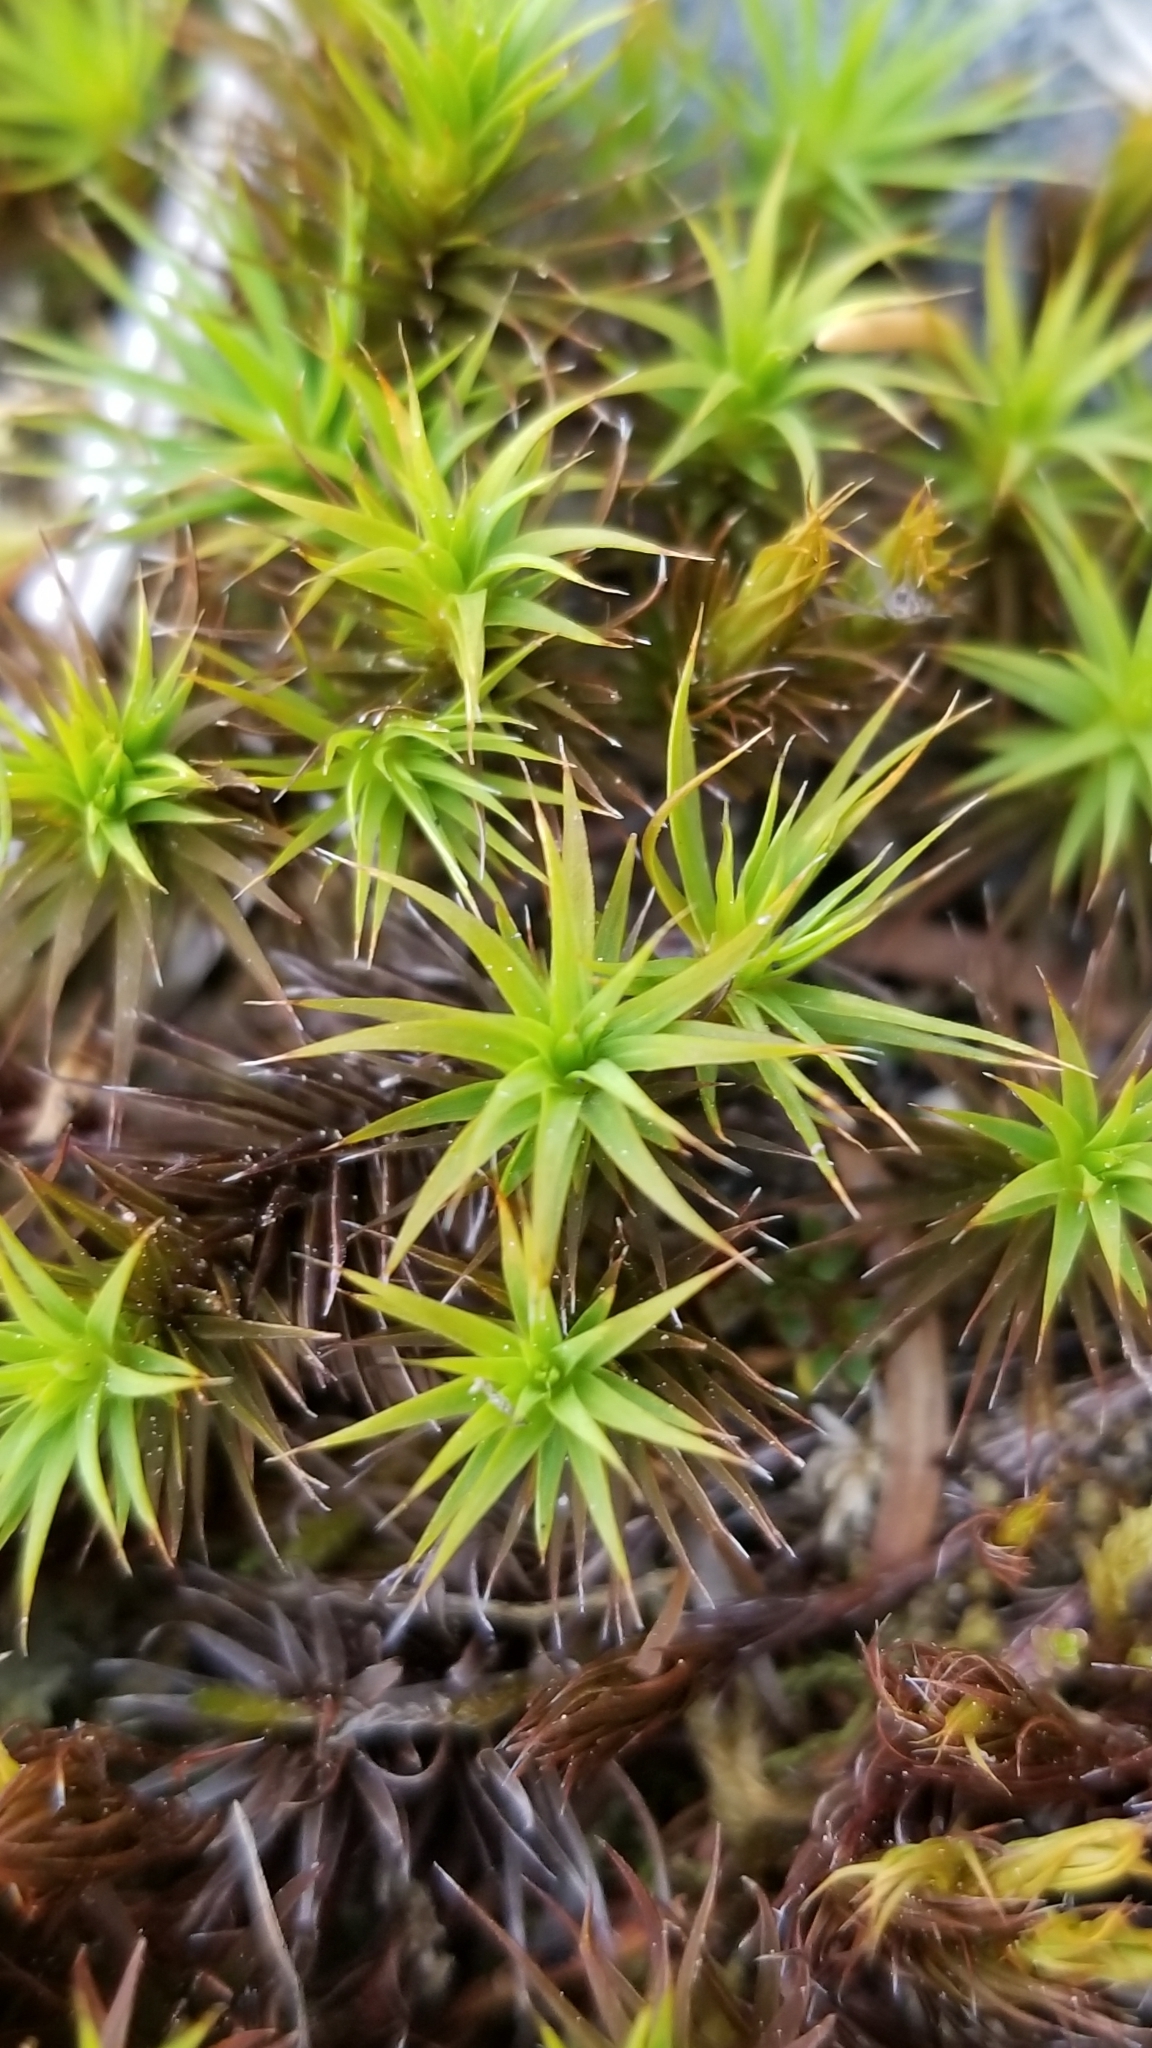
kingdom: Plantae
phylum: Bryophyta
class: Polytrichopsida
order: Polytrichales
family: Polytrichaceae
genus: Polytrichum
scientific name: Polytrichum juniperinum
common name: Juniper haircap moss
